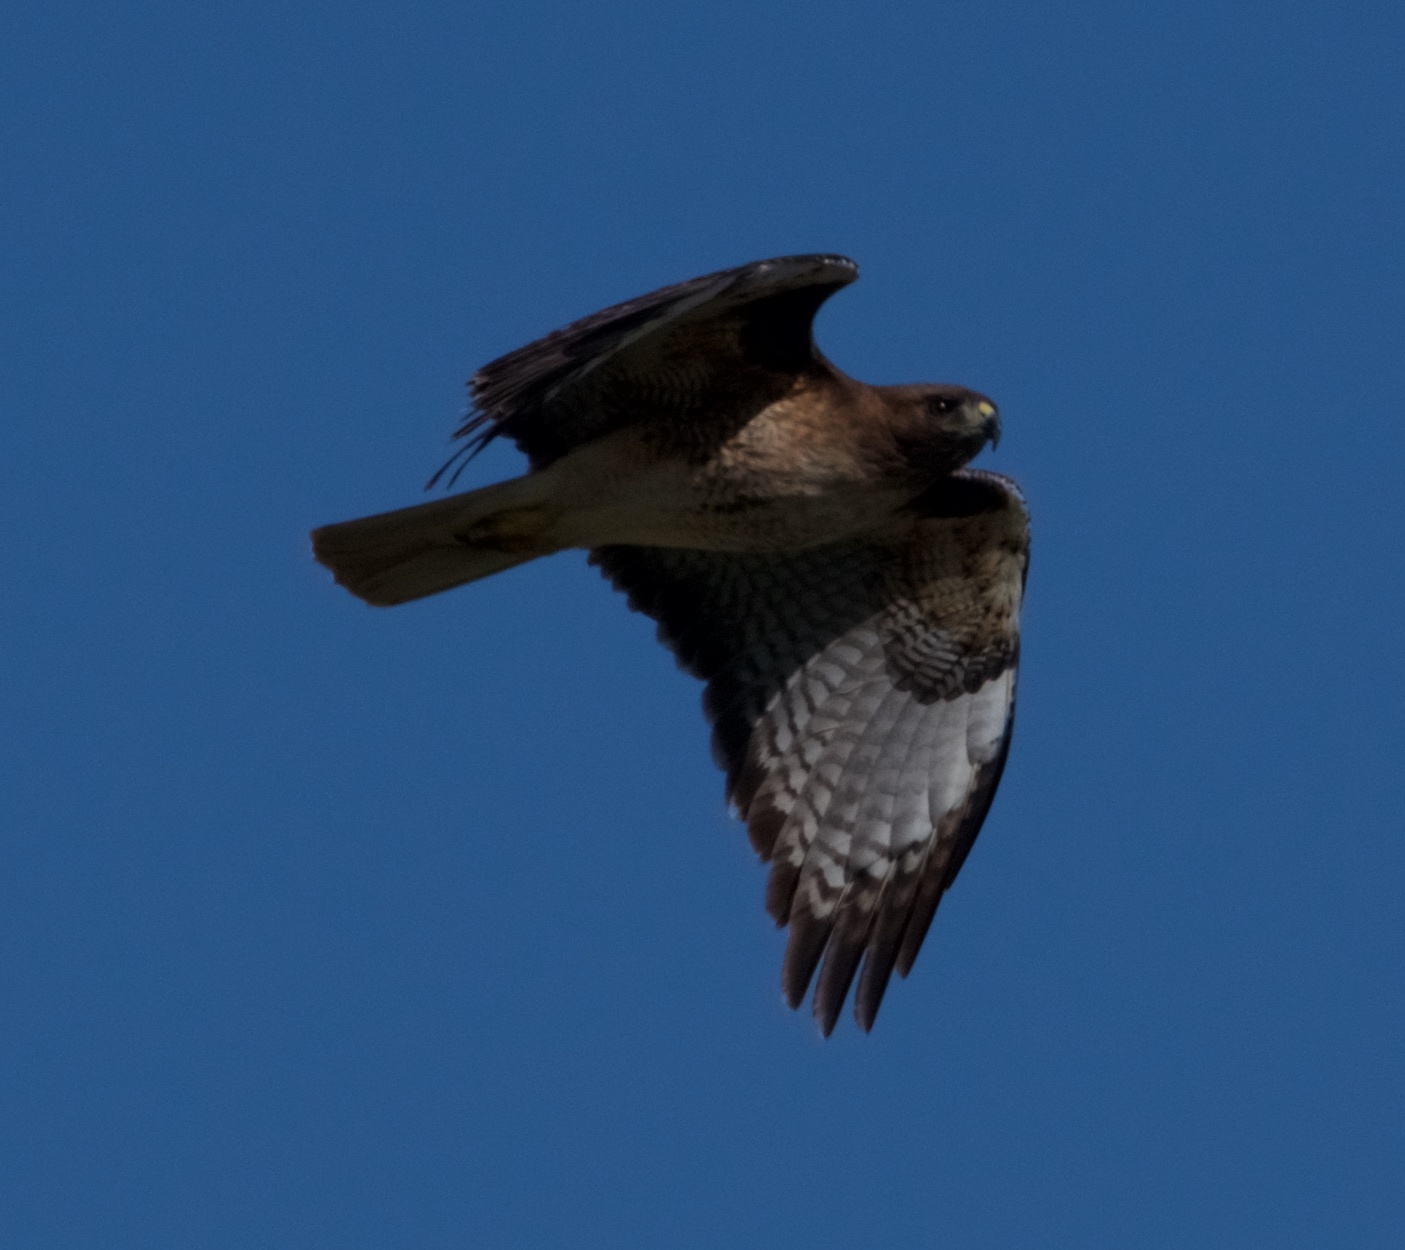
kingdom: Animalia
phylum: Chordata
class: Aves
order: Accipitriformes
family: Accipitridae
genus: Buteo
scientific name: Buteo jamaicensis
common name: Red-tailed hawk
